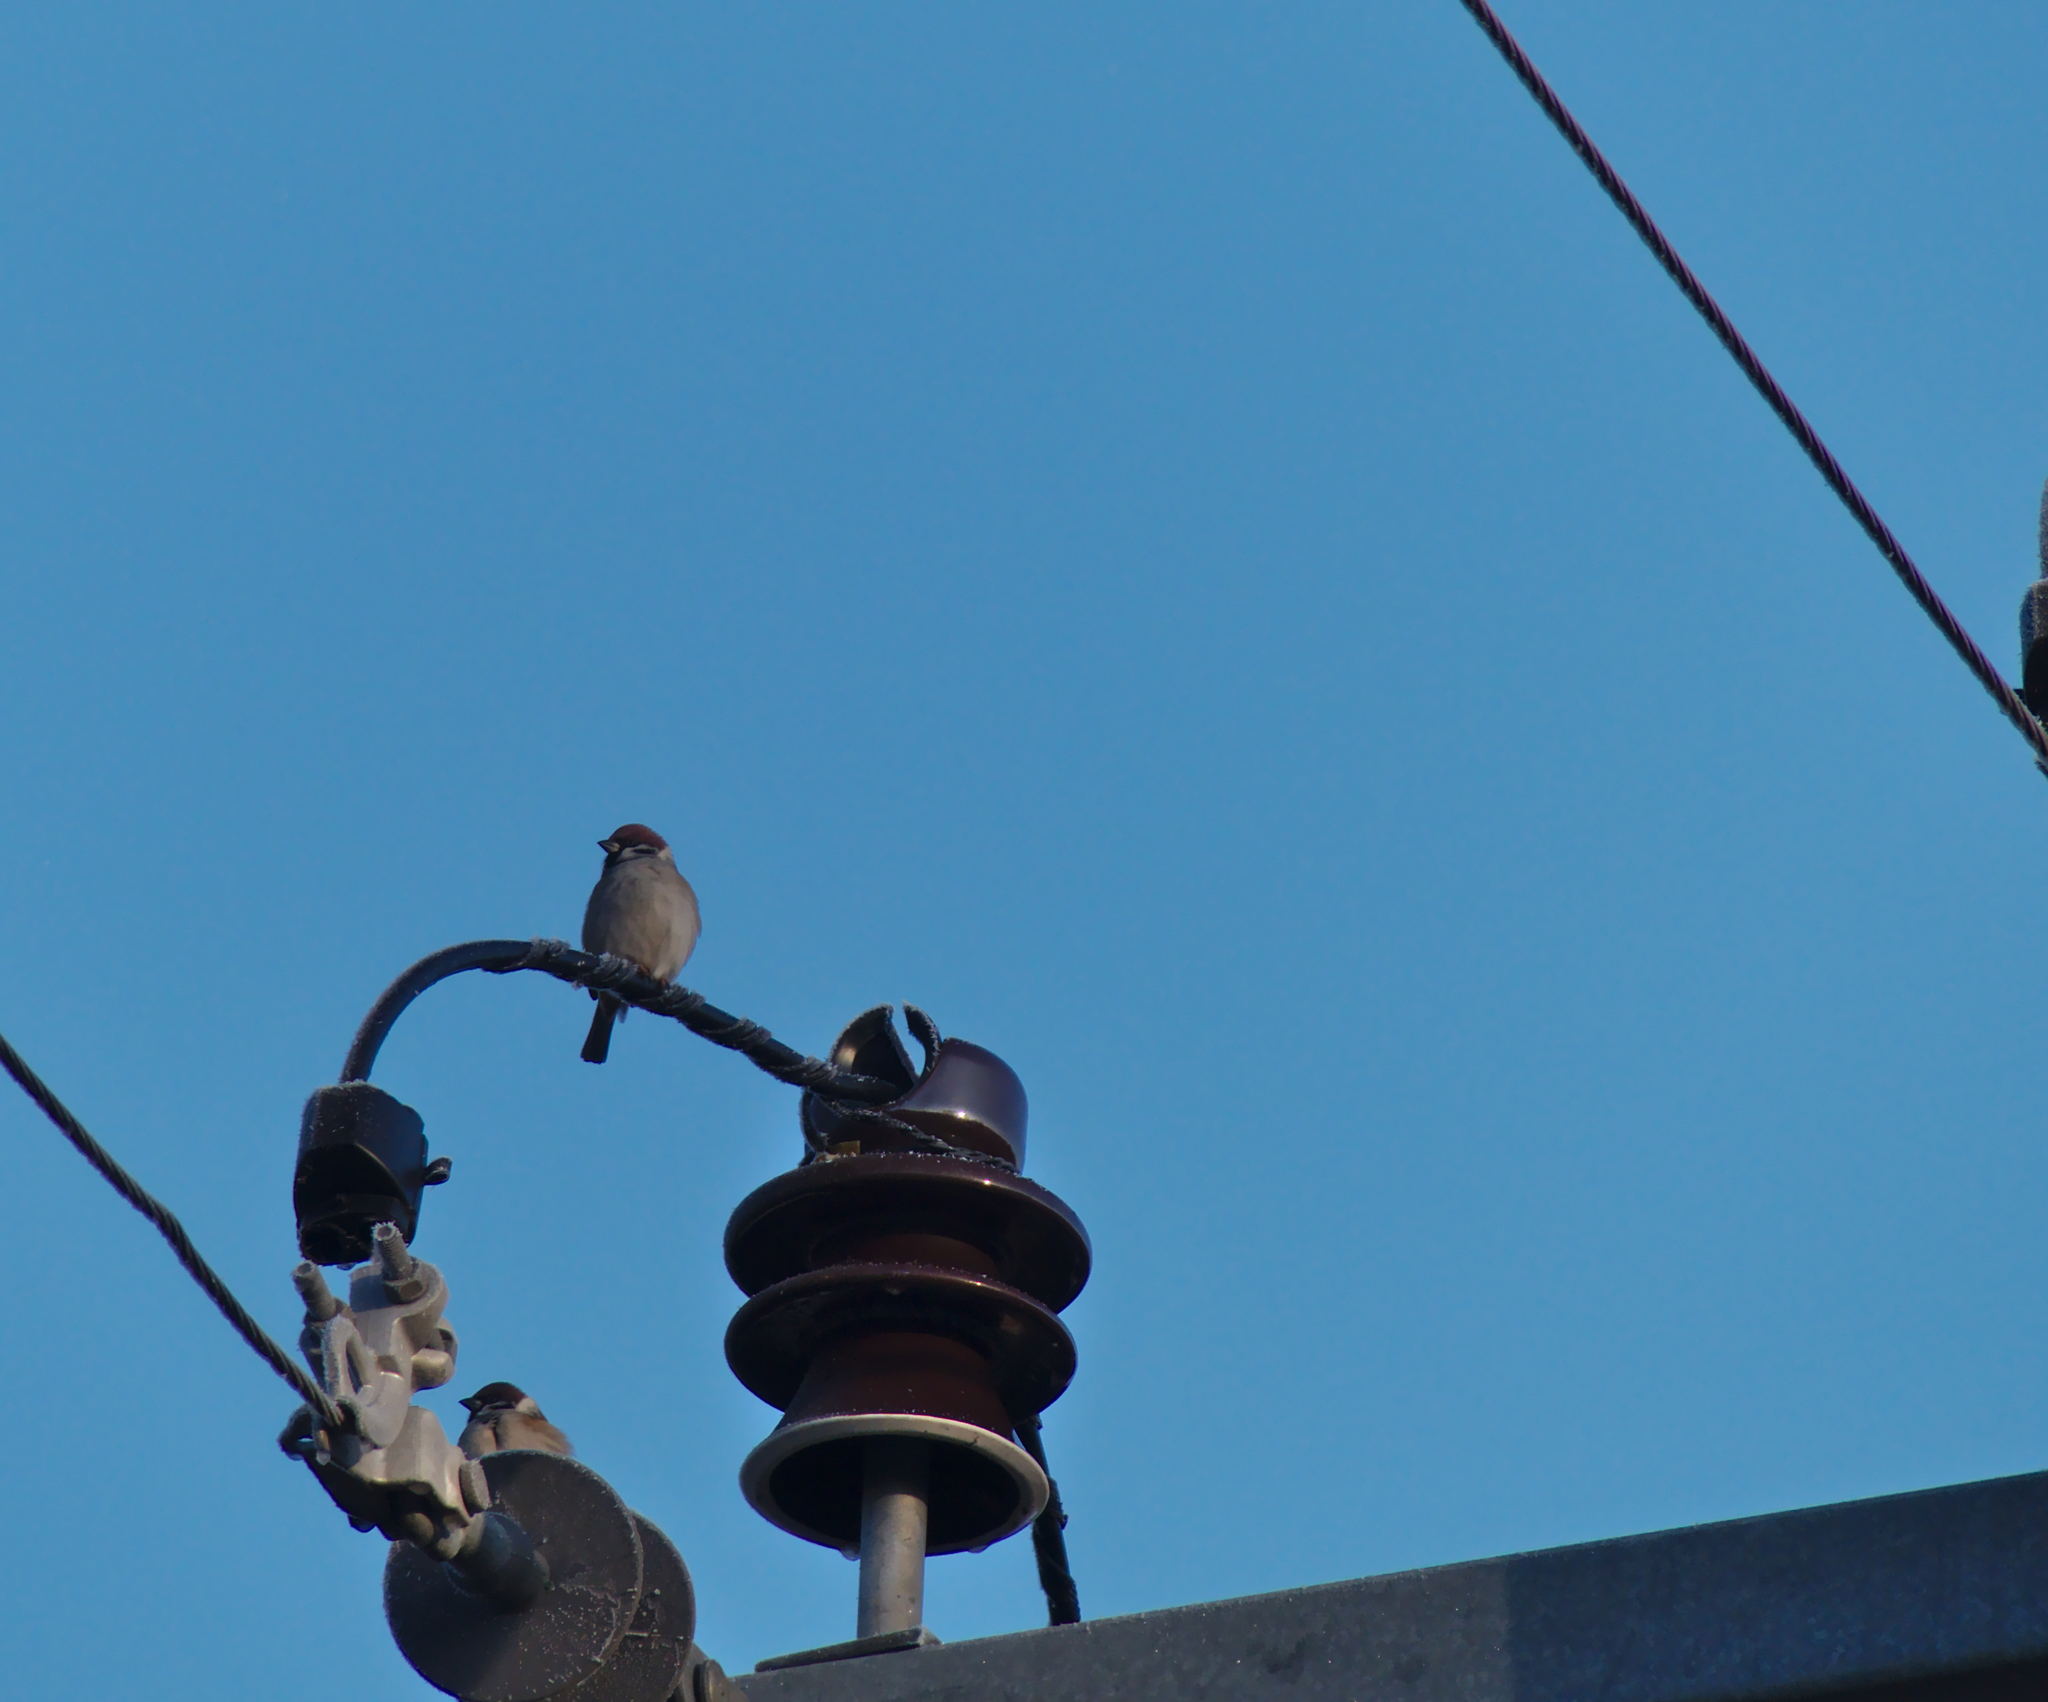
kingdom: Animalia
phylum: Chordata
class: Aves
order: Passeriformes
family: Passeridae
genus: Passer
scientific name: Passer montanus
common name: Eurasian tree sparrow
